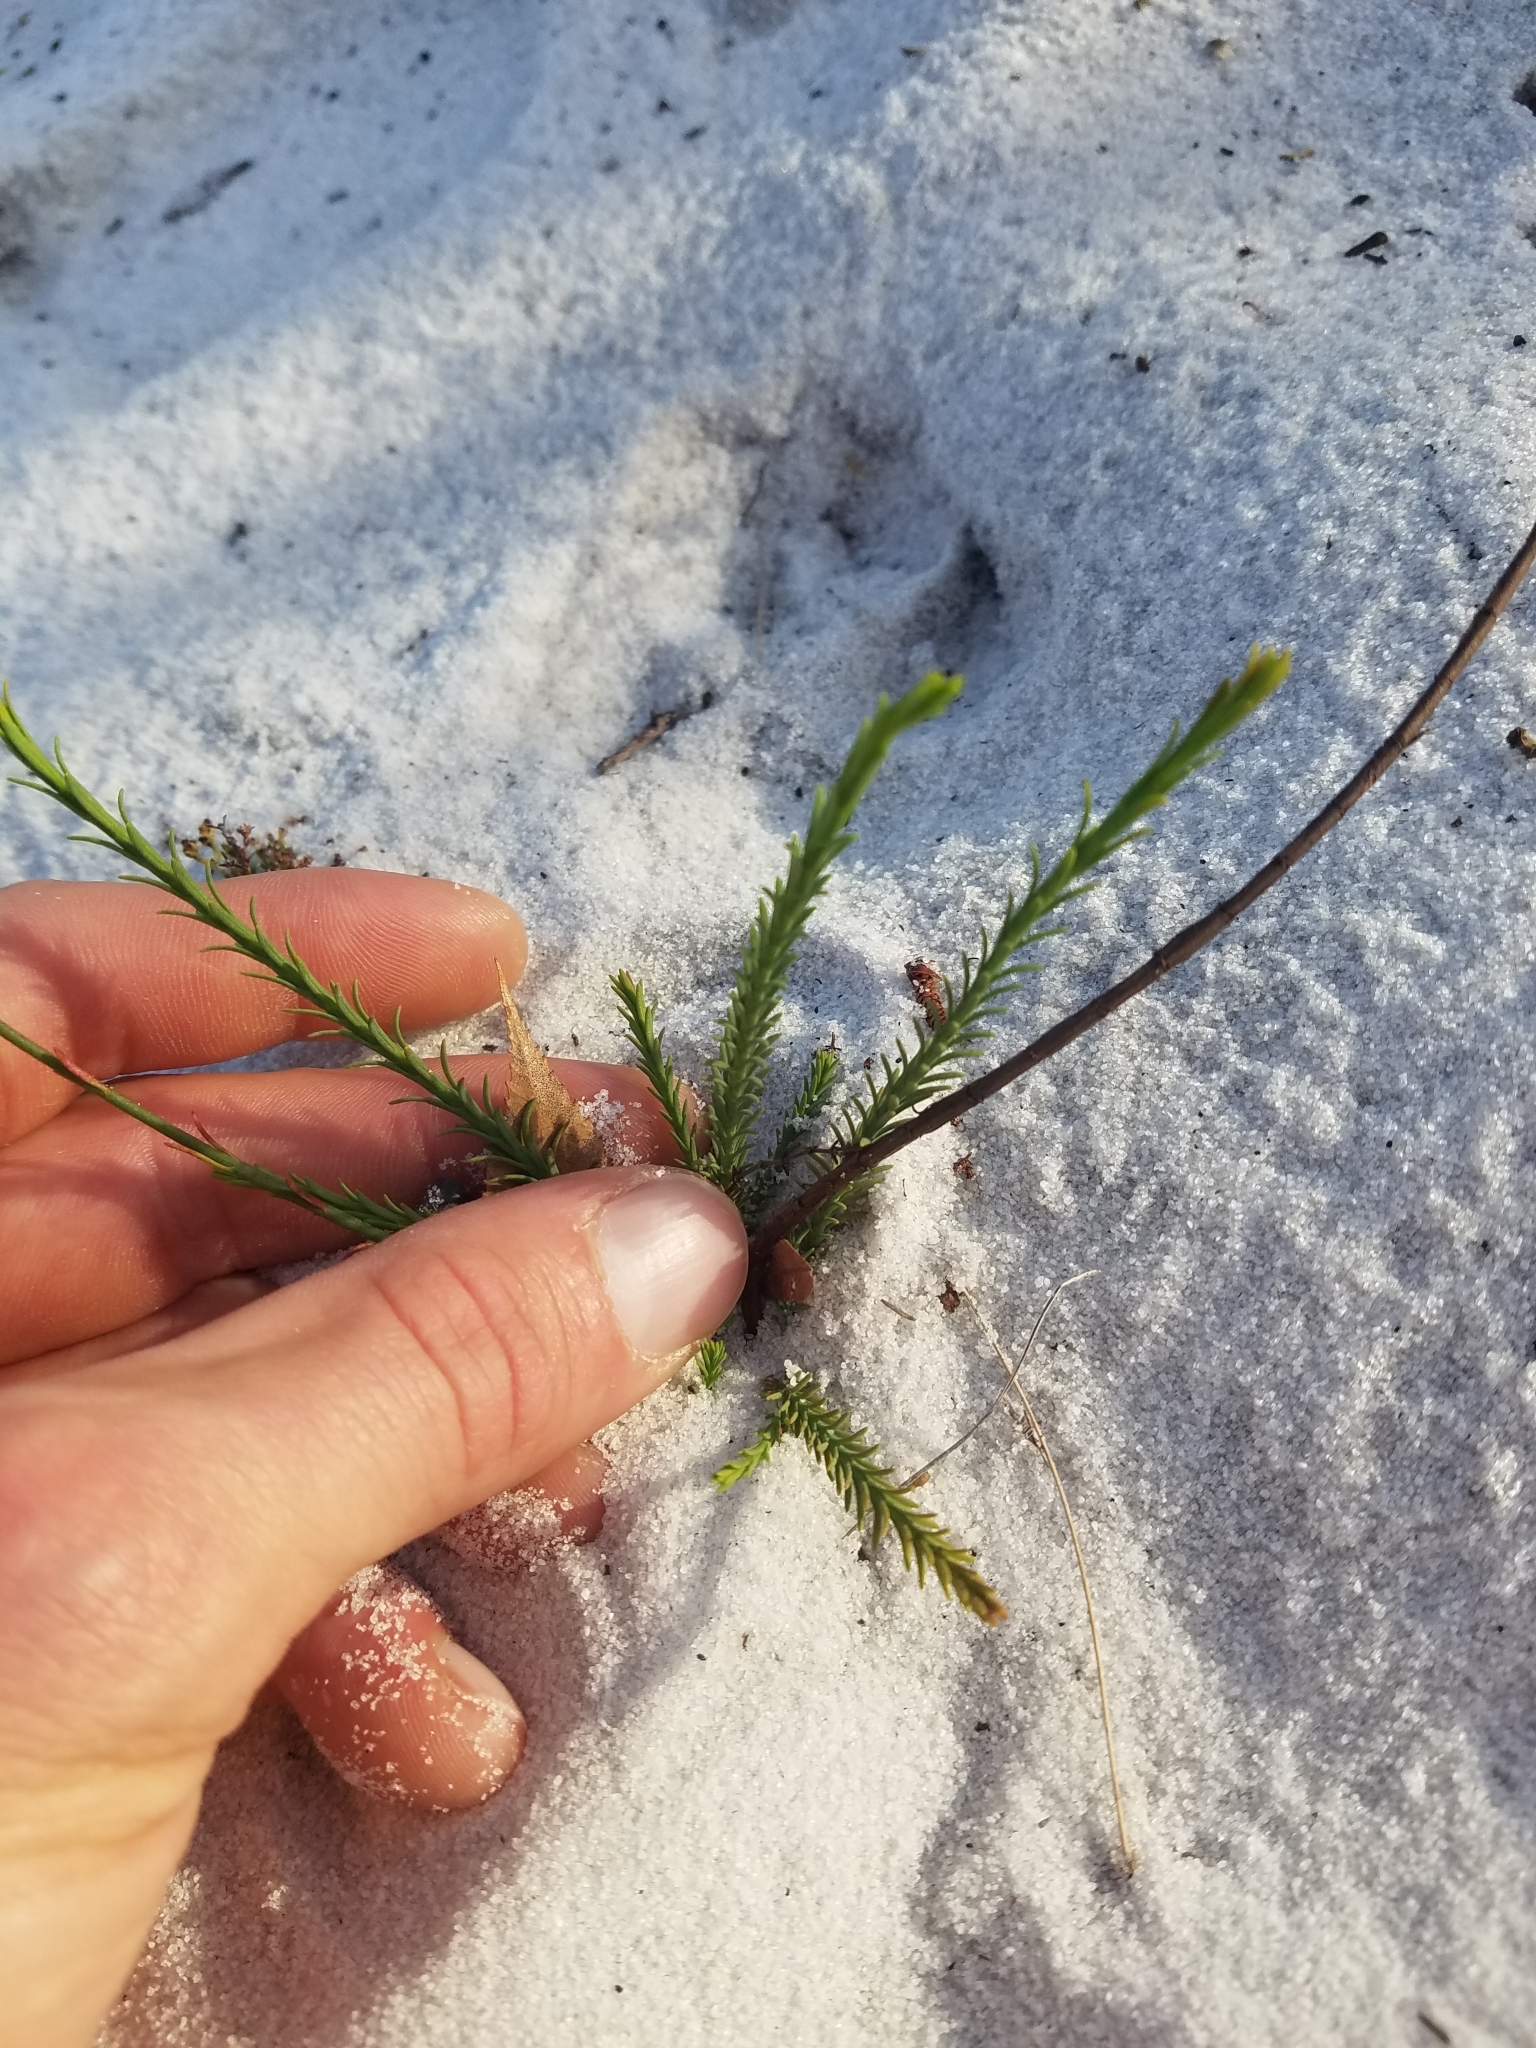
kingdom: Plantae
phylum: Tracheophyta
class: Magnoliopsida
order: Malpighiales
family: Hypericaceae
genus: Hypericum
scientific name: Hypericum cumulicola
